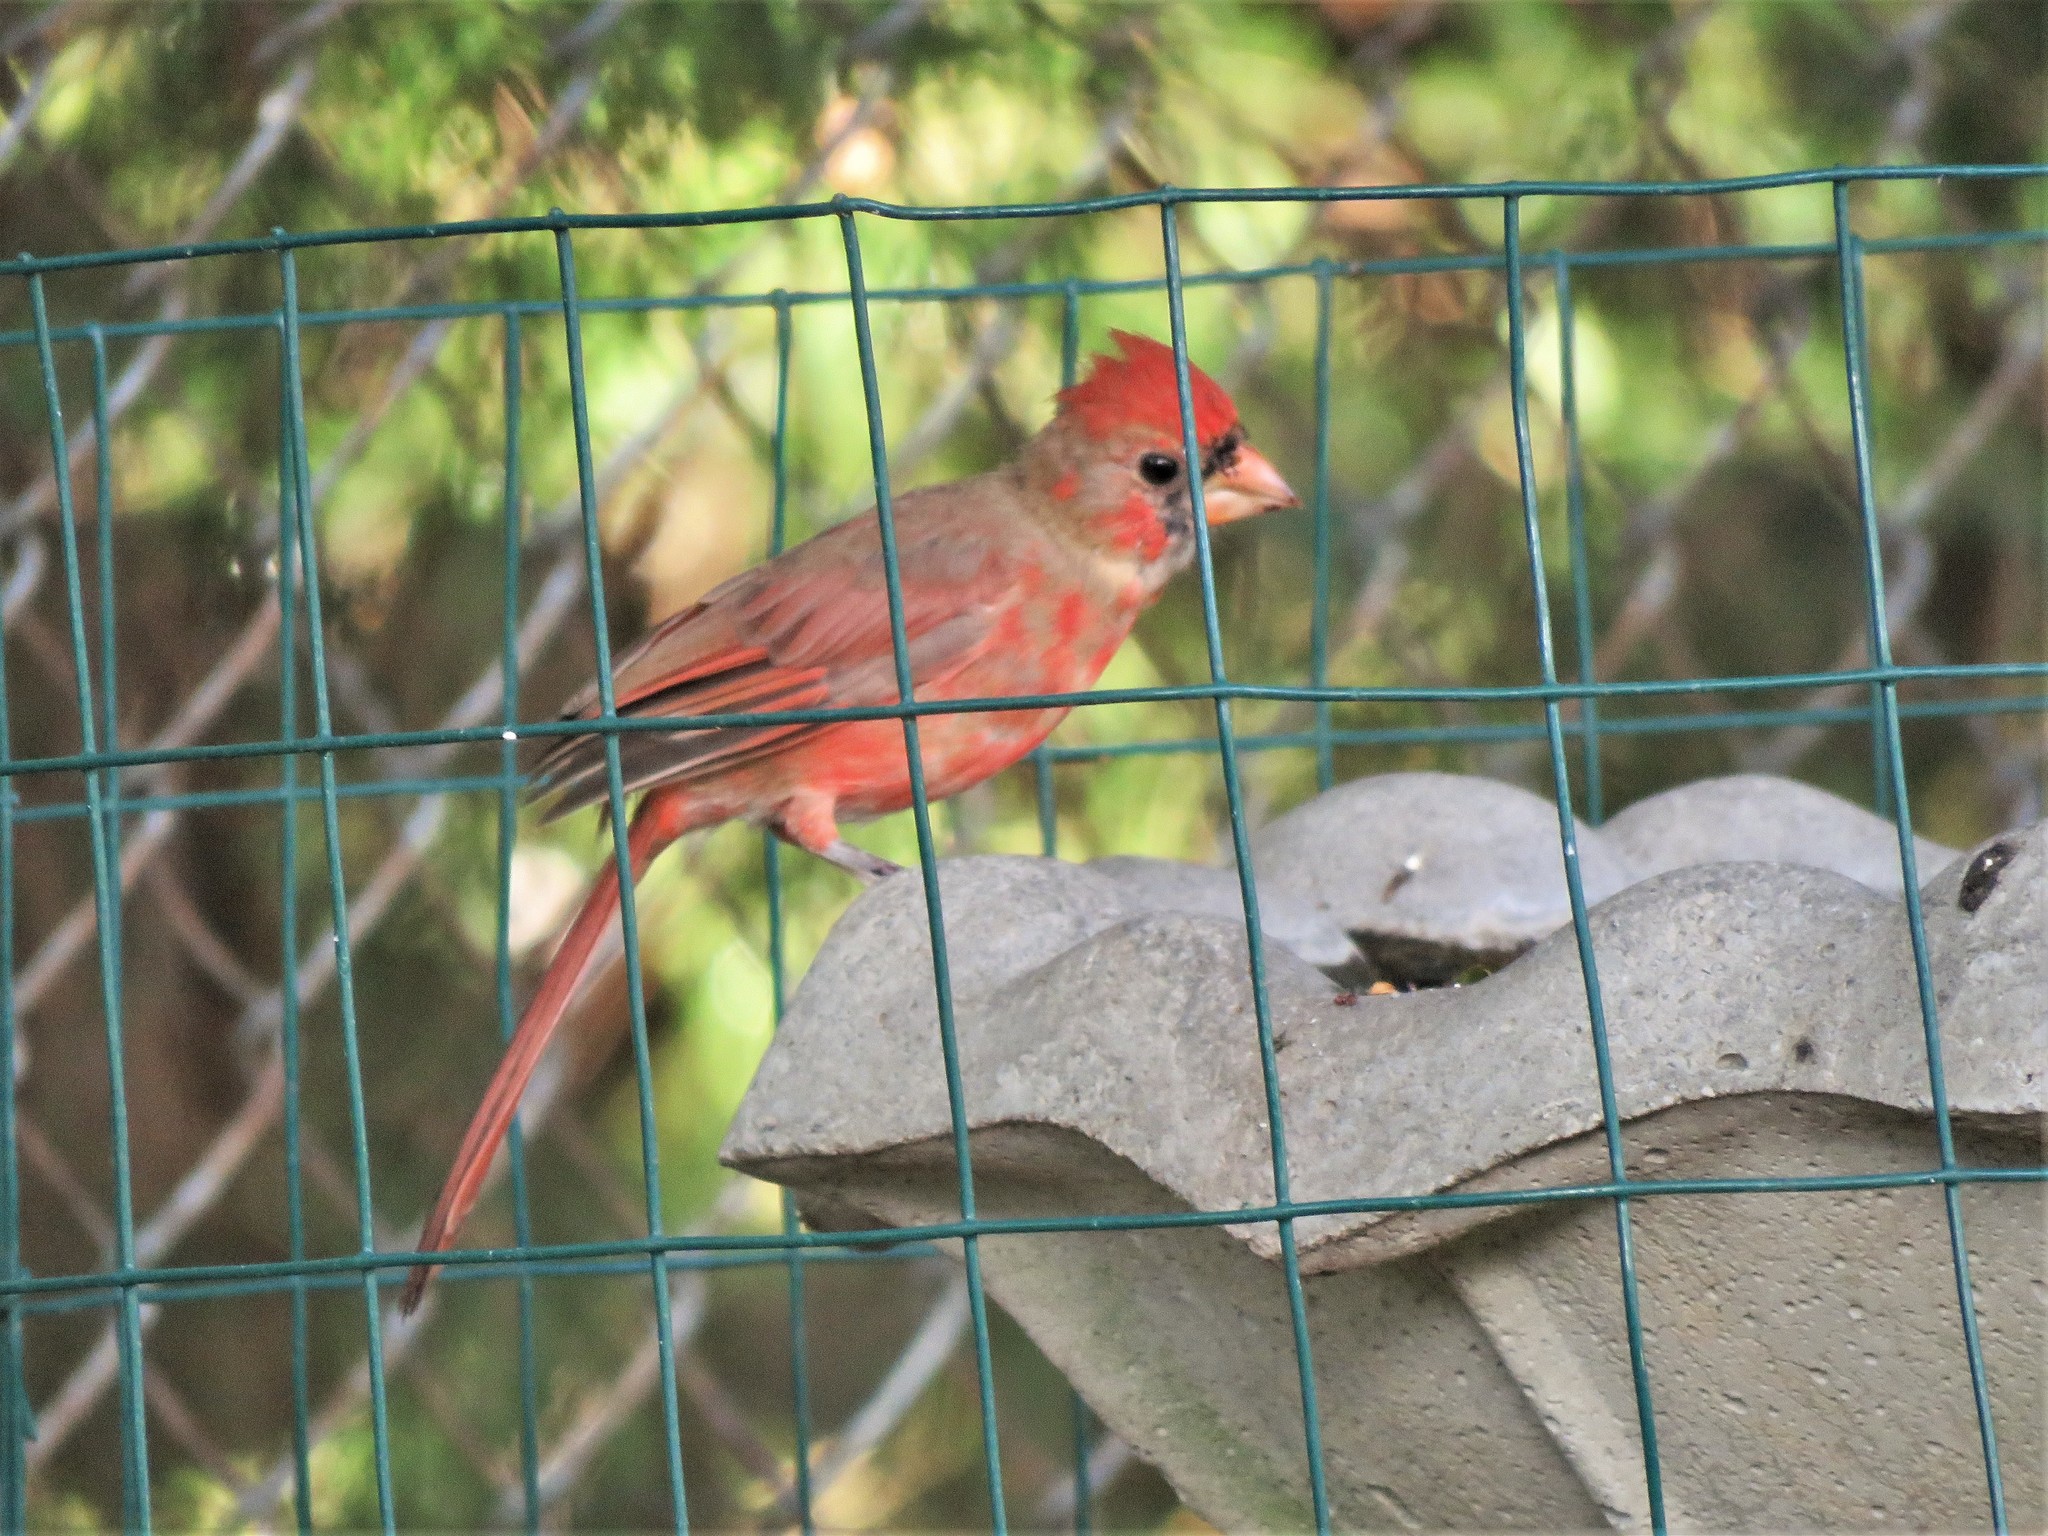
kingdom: Animalia
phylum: Chordata
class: Aves
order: Passeriformes
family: Cardinalidae
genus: Cardinalis
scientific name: Cardinalis cardinalis
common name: Northern cardinal
